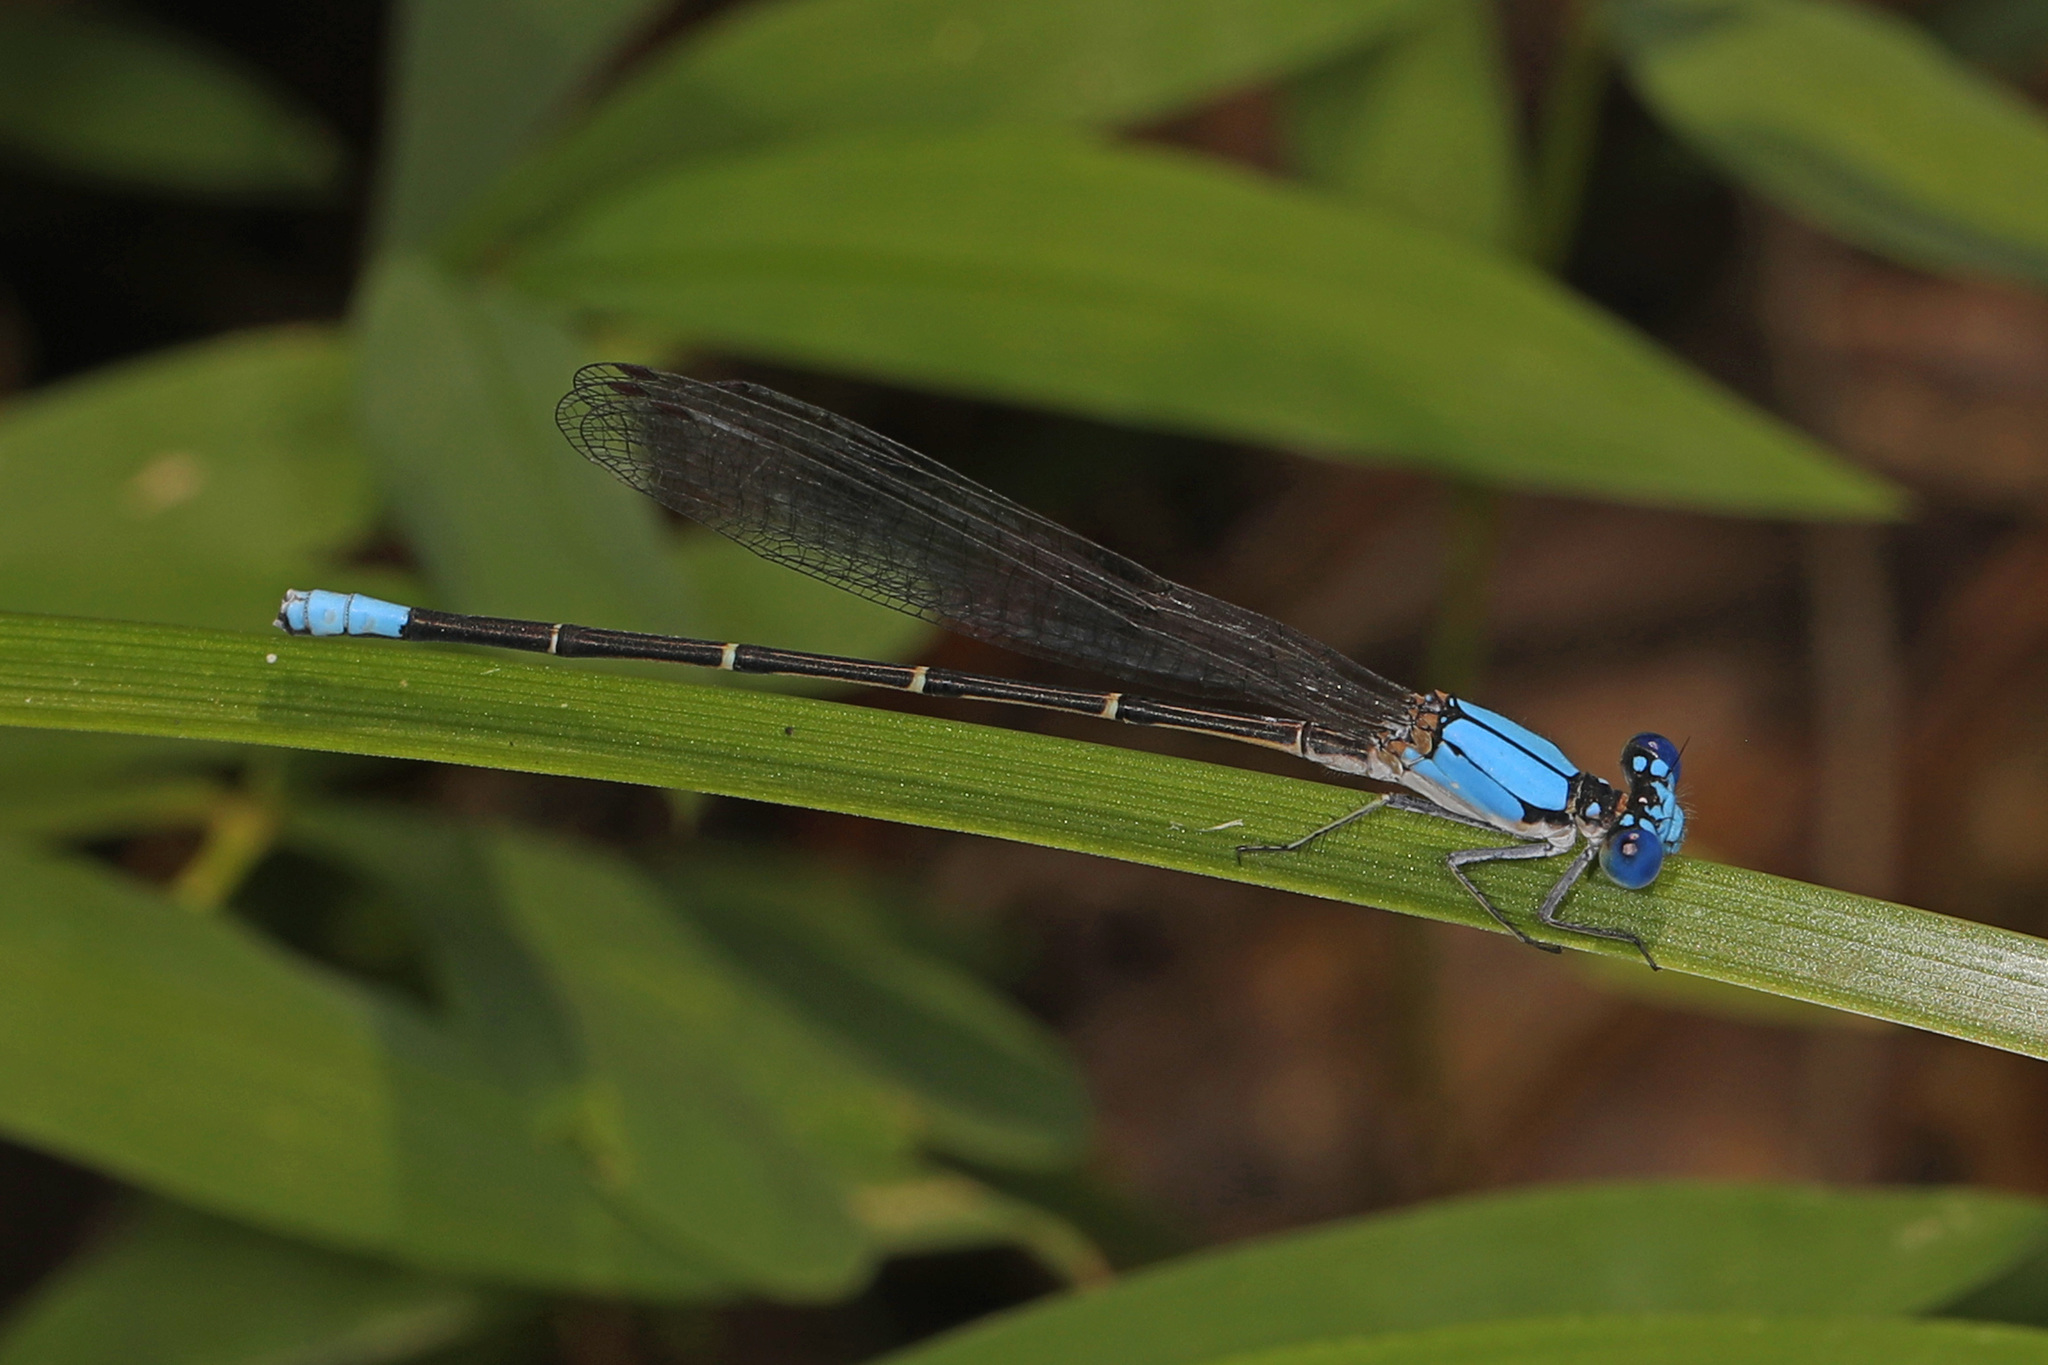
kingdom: Animalia
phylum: Arthropoda
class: Insecta
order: Odonata
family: Coenagrionidae
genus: Argia
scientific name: Argia apicalis
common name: Blue-fronted dancer
